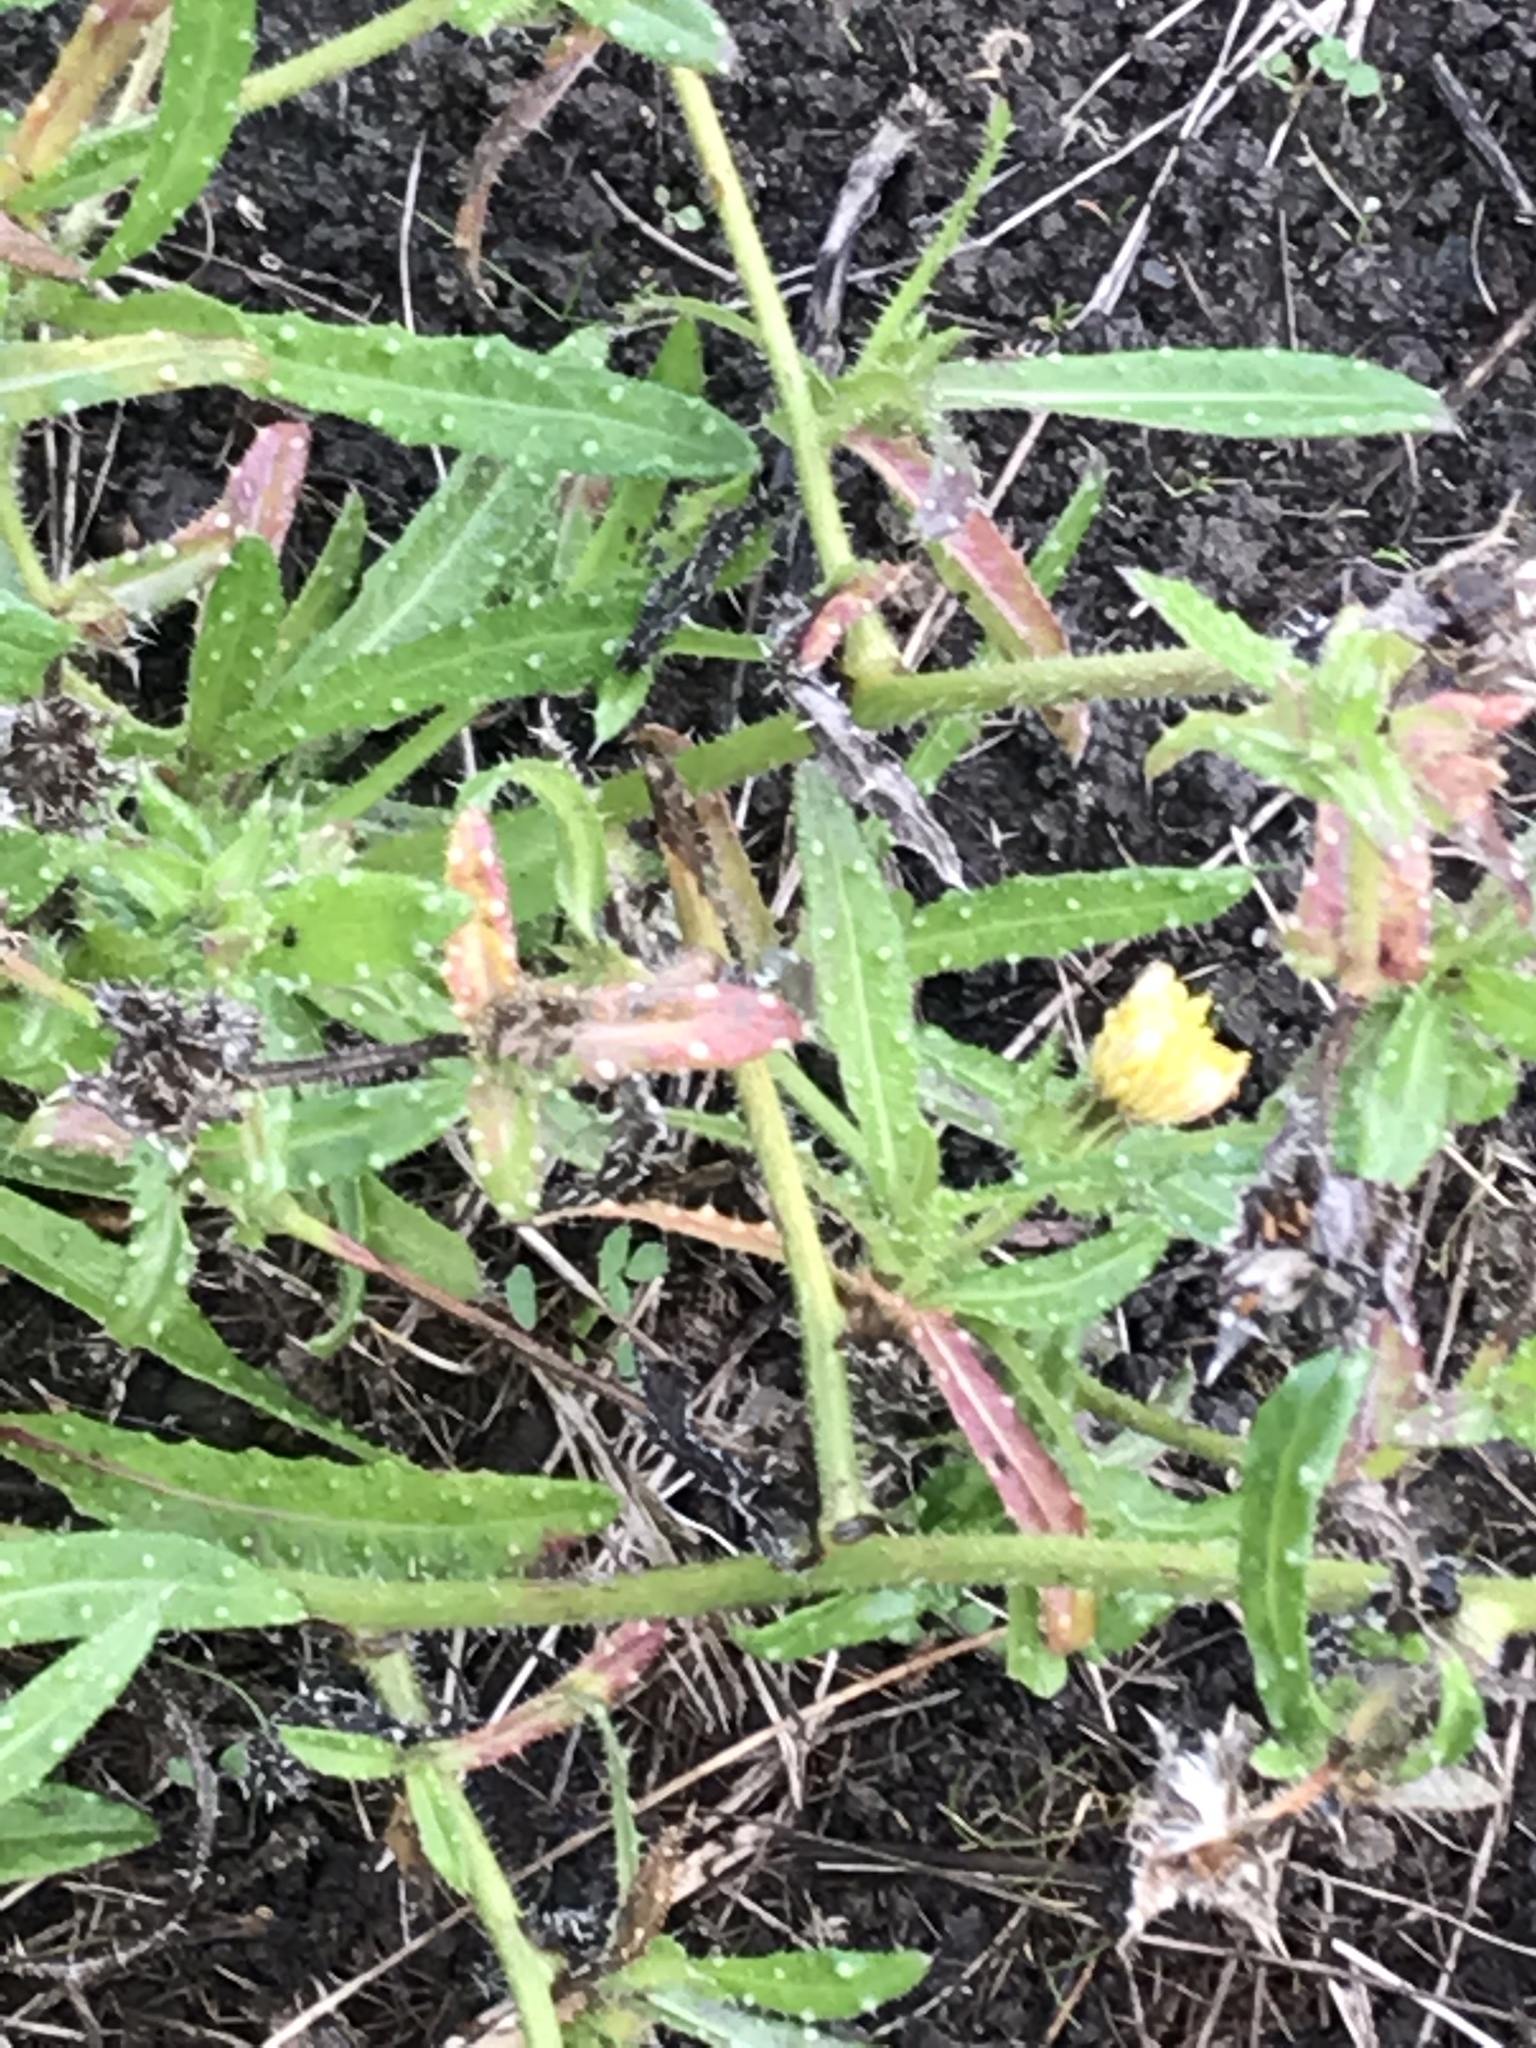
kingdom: Plantae
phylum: Tracheophyta
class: Magnoliopsida
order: Asterales
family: Asteraceae
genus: Helminthotheca
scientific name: Helminthotheca echioides
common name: Ox-tongue
